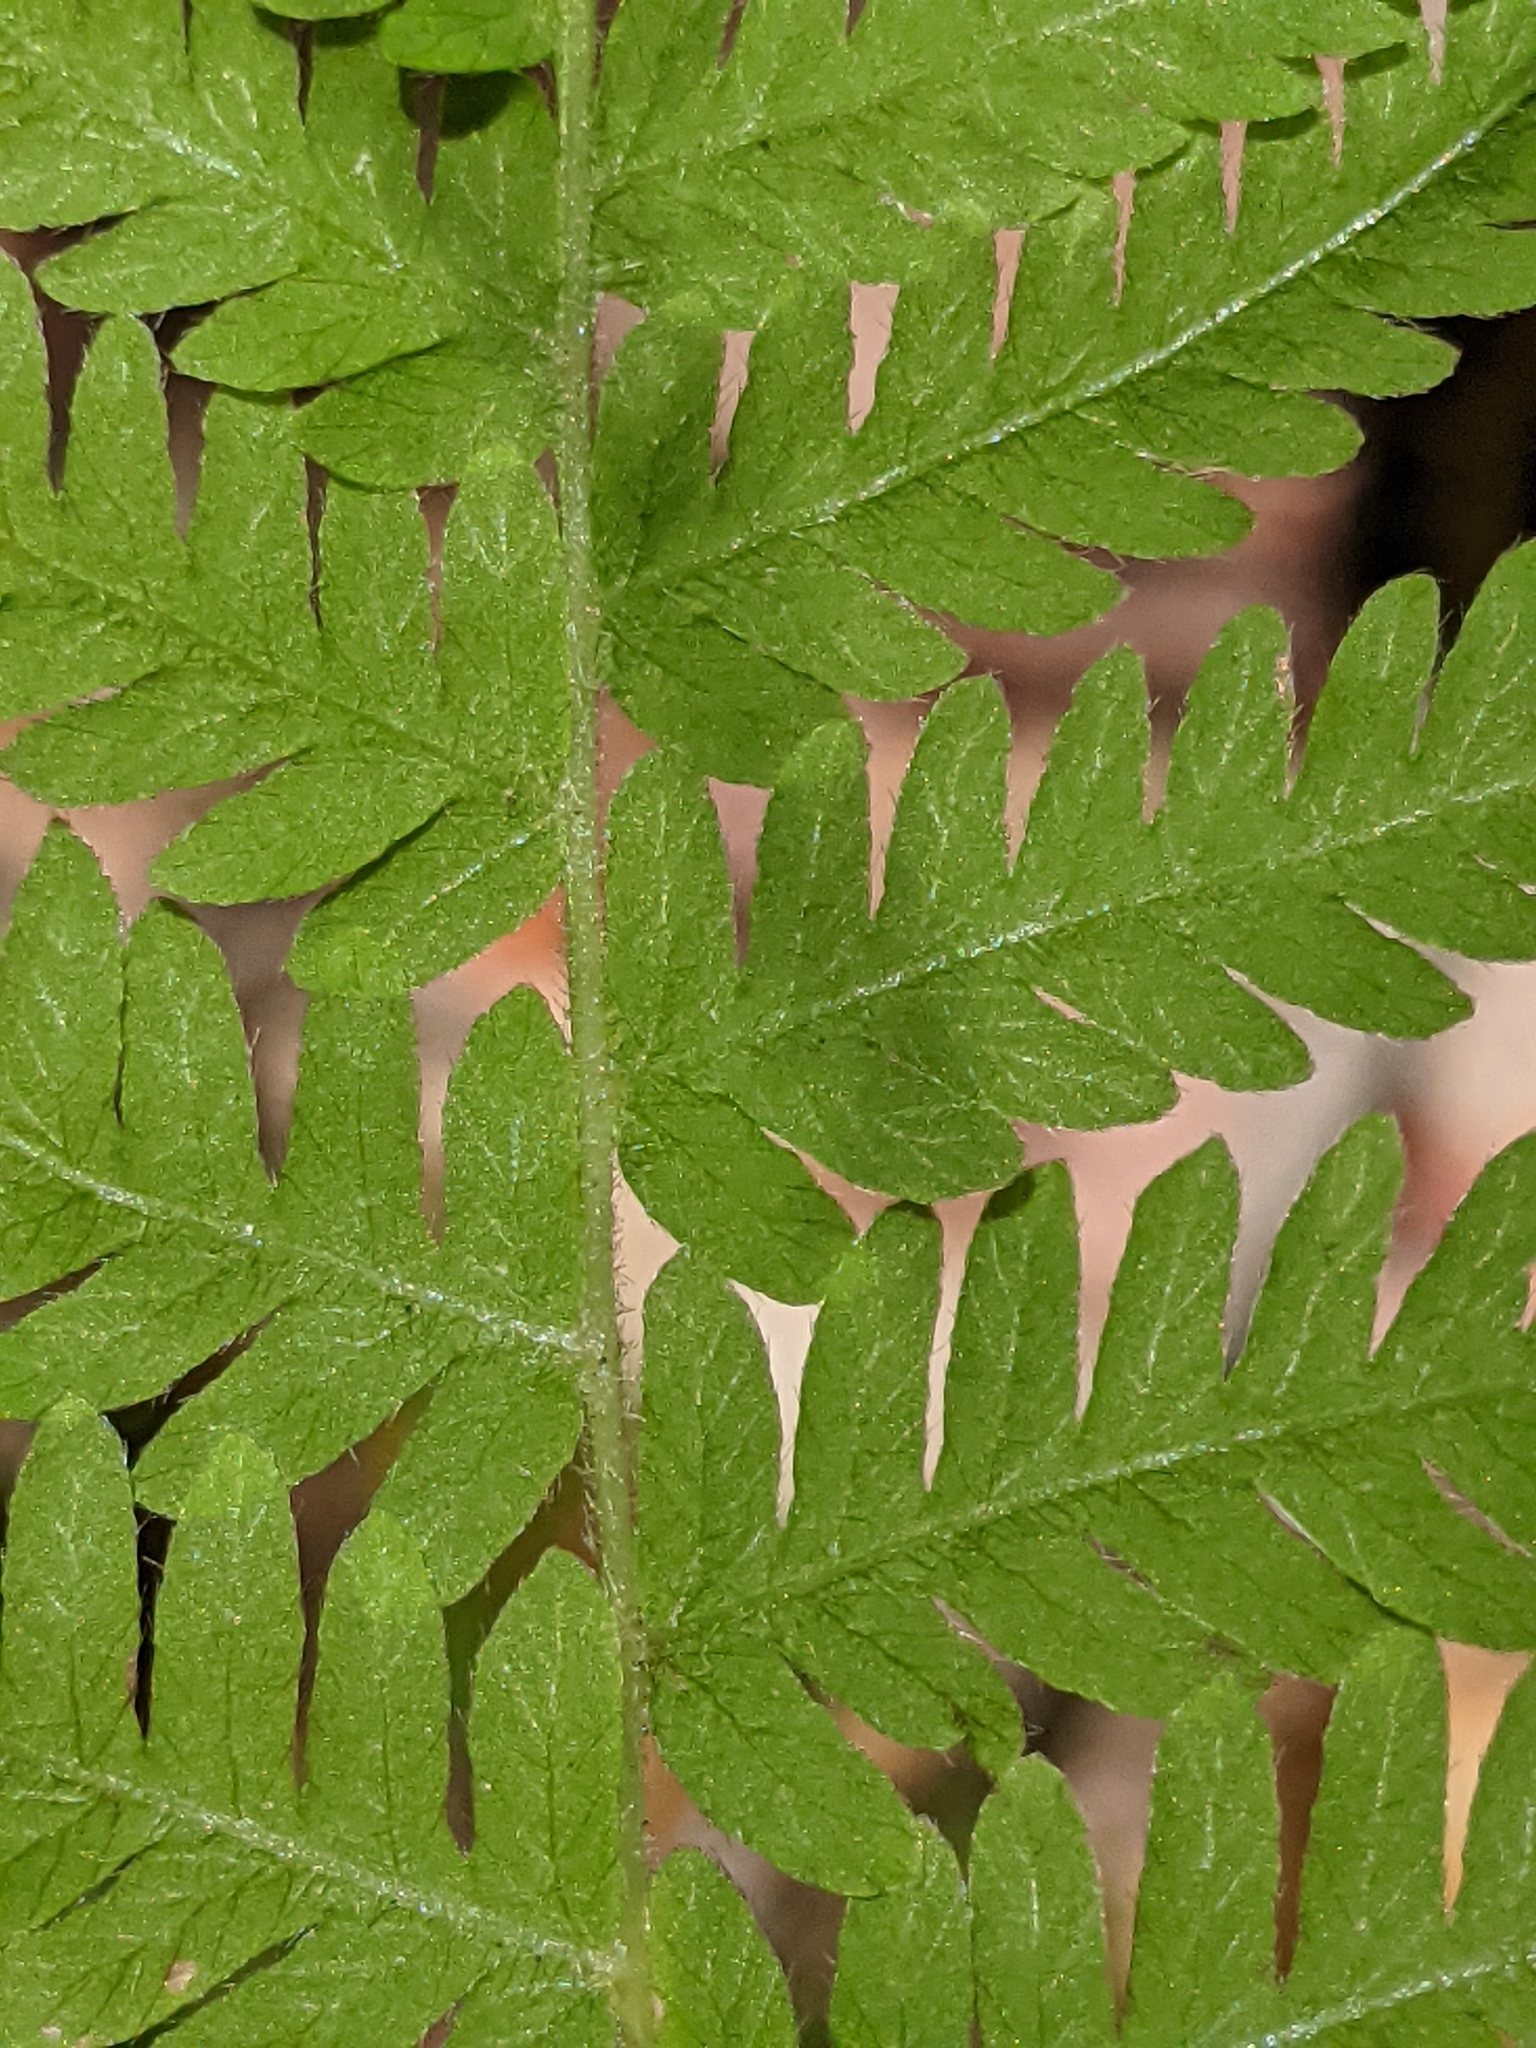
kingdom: Plantae
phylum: Tracheophyta
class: Polypodiopsida
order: Polypodiales
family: Thelypteridaceae
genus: Amauropelta
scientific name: Amauropelta noveboracensis
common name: New york fern
